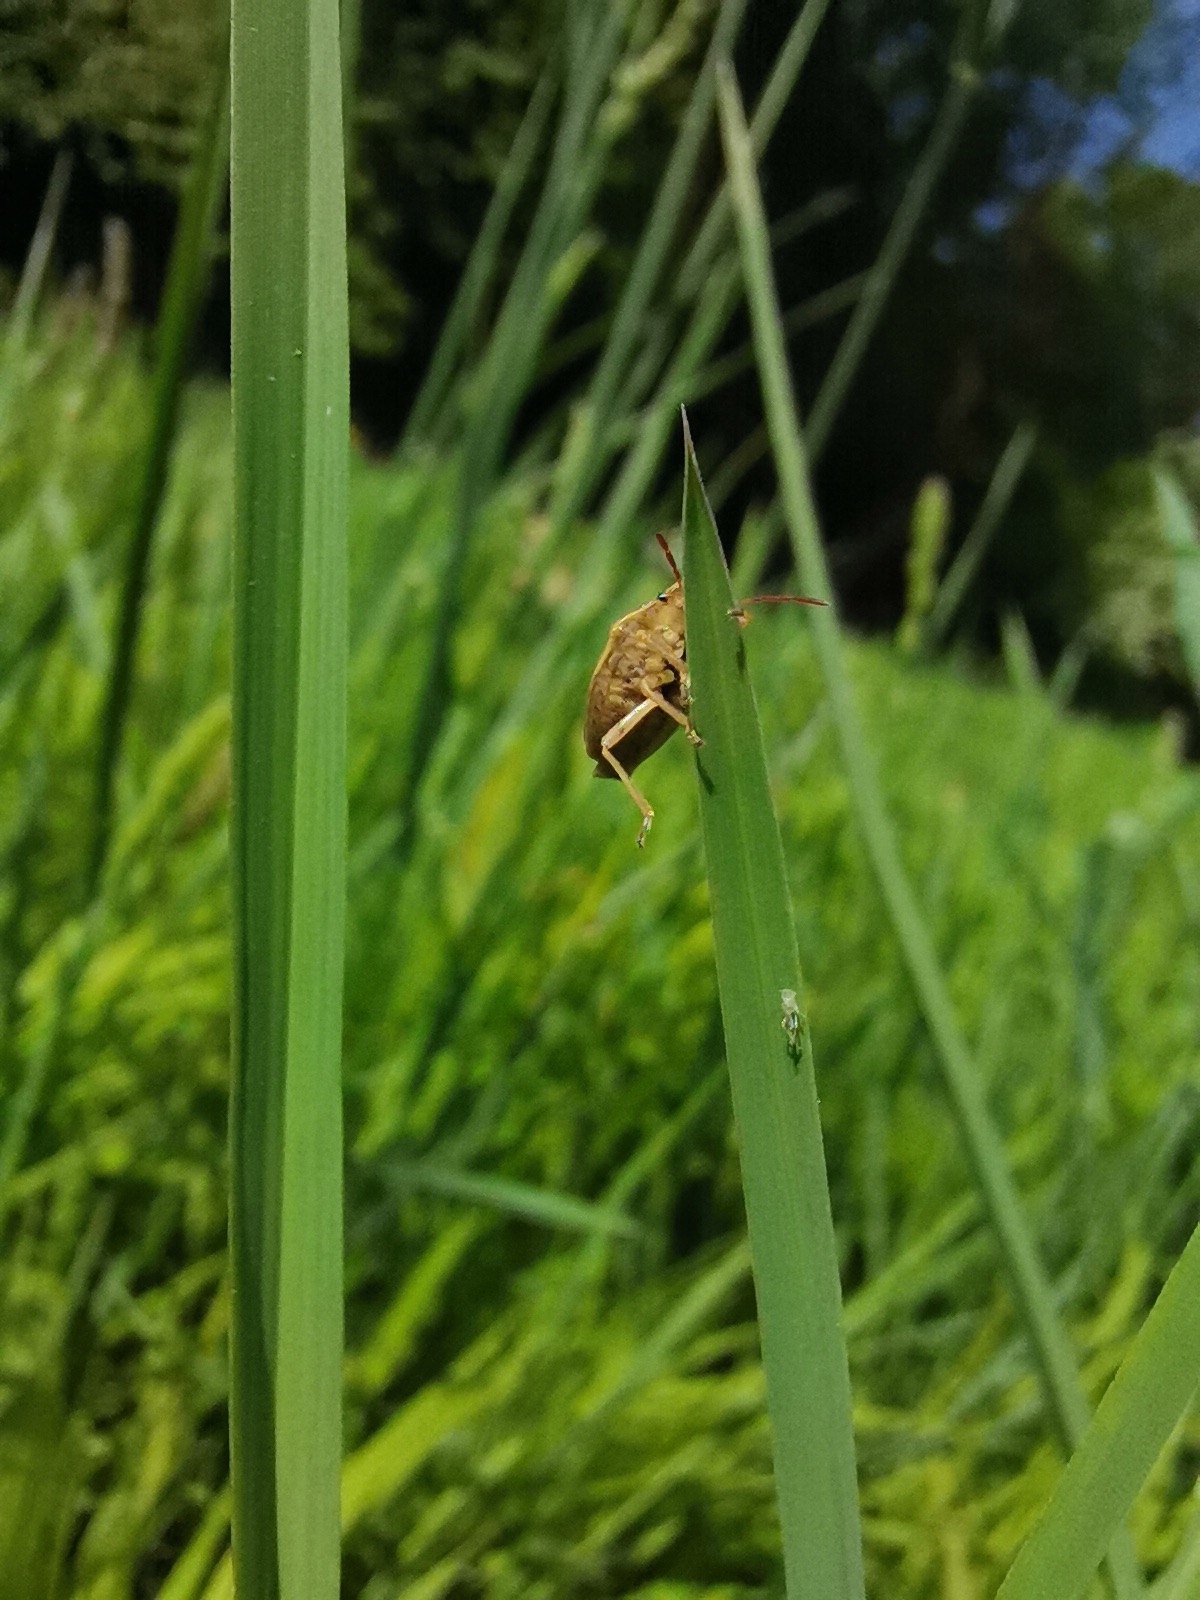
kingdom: Animalia
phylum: Arthropoda
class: Insecta
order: Hemiptera
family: Pentatomidae
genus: Aelia
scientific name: Aelia acuminata
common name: Bishop's mitre
